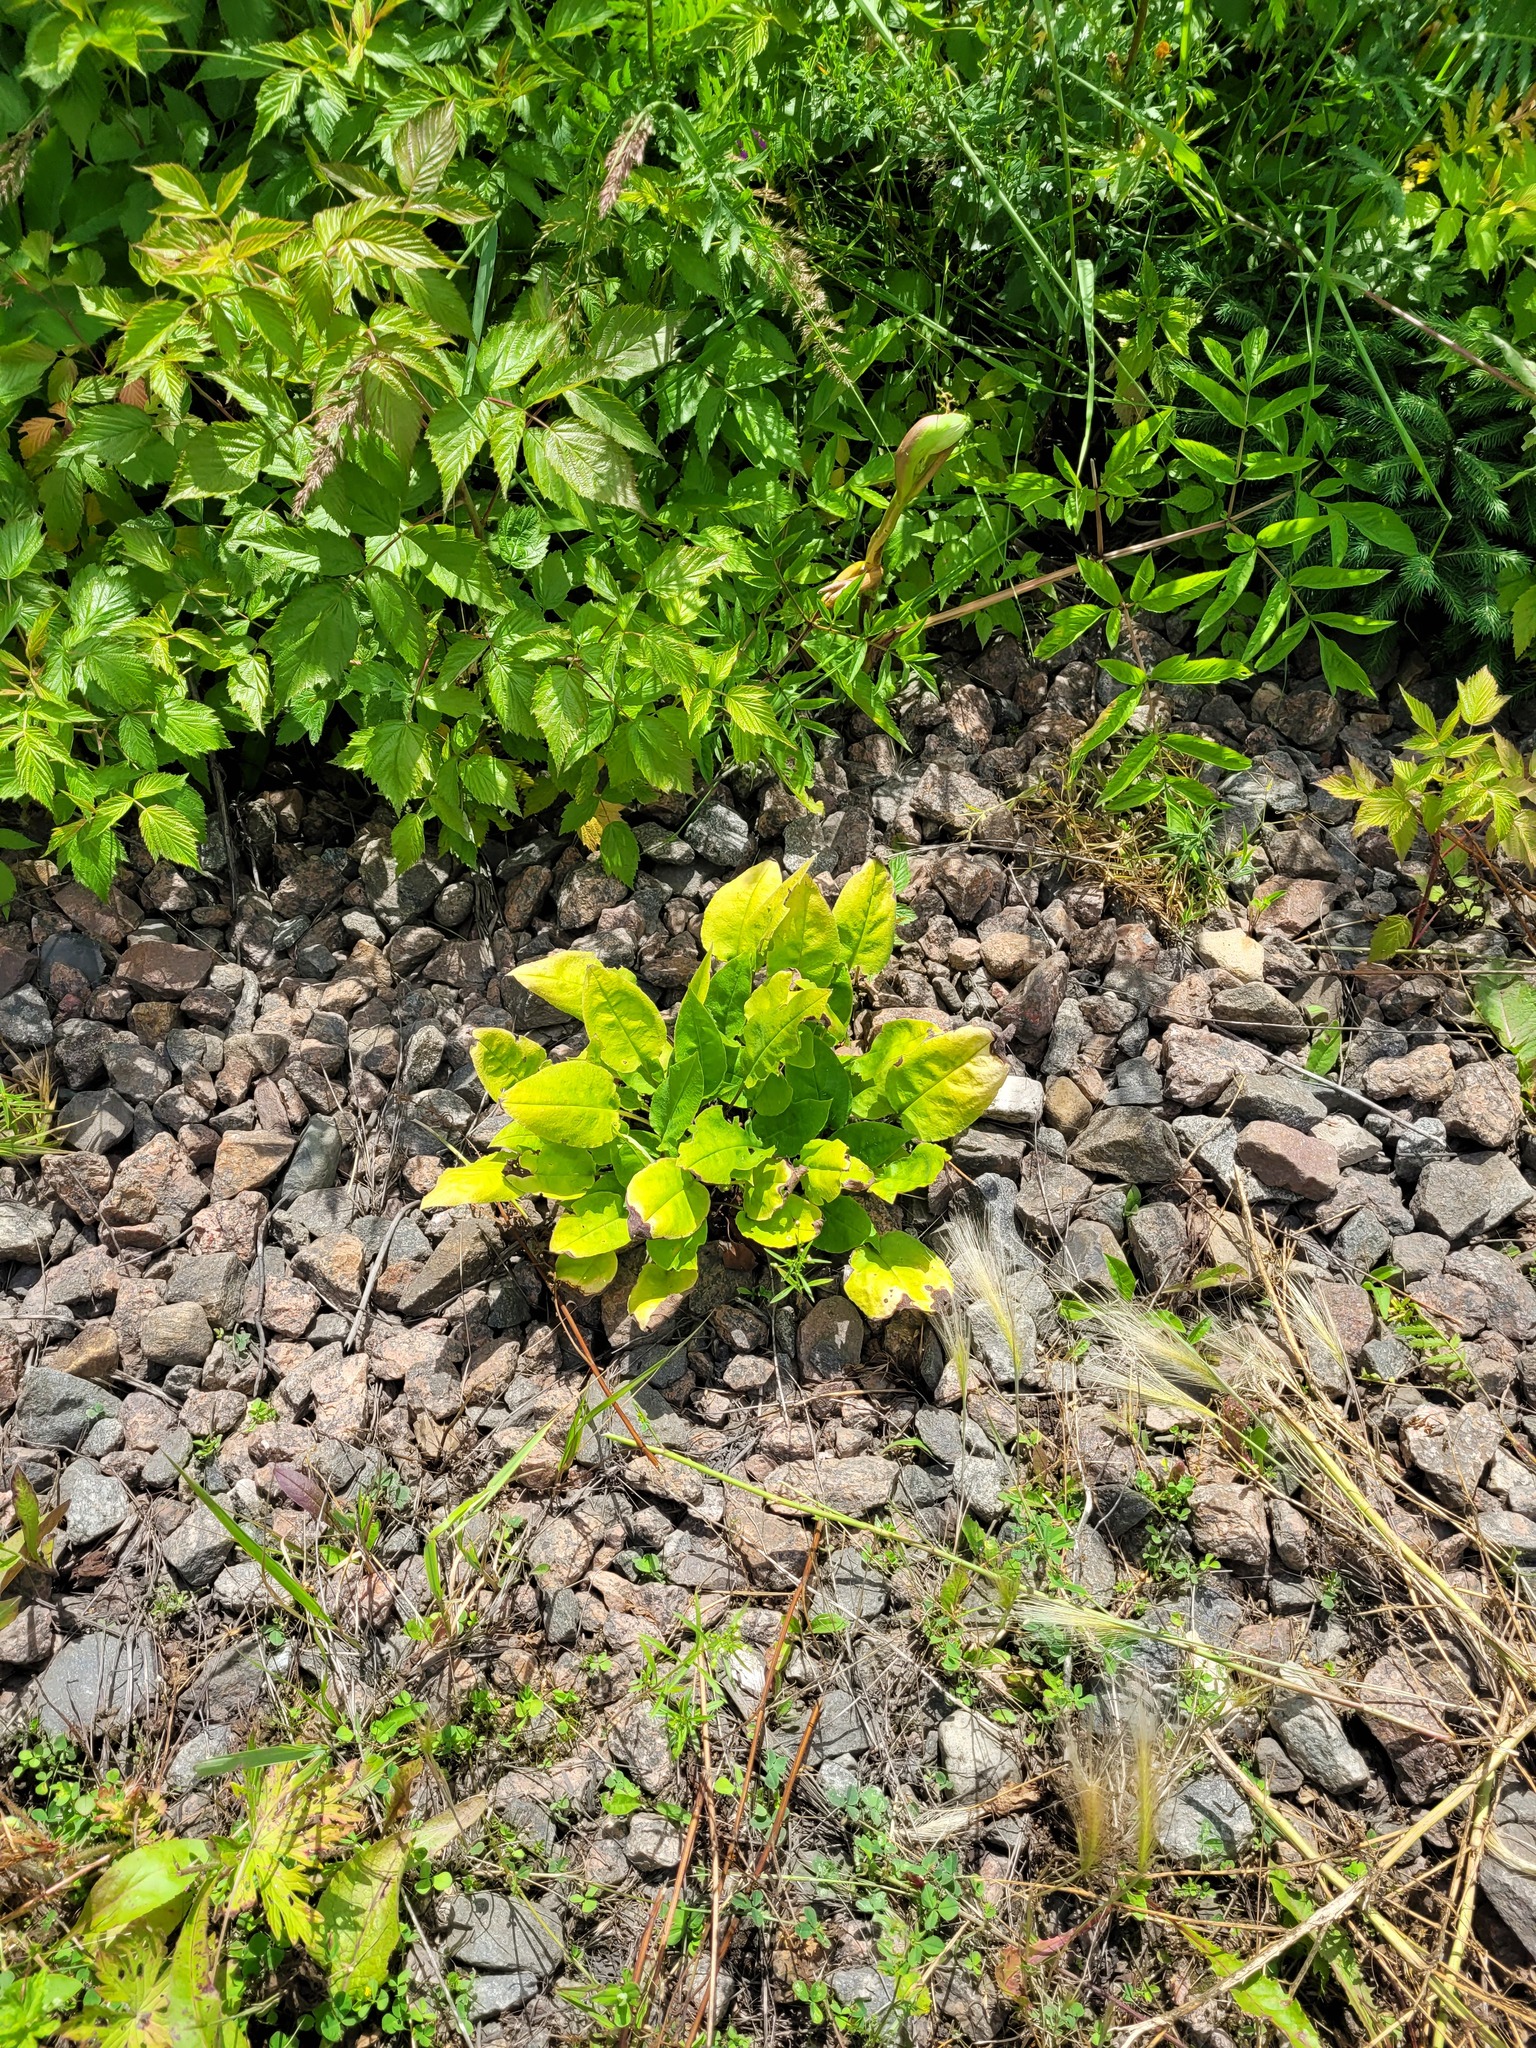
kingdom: Plantae
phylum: Tracheophyta
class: Magnoliopsida
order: Boraginales
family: Boraginaceae
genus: Pulmonaria
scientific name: Pulmonaria obscura
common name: Suffolk lungwort
